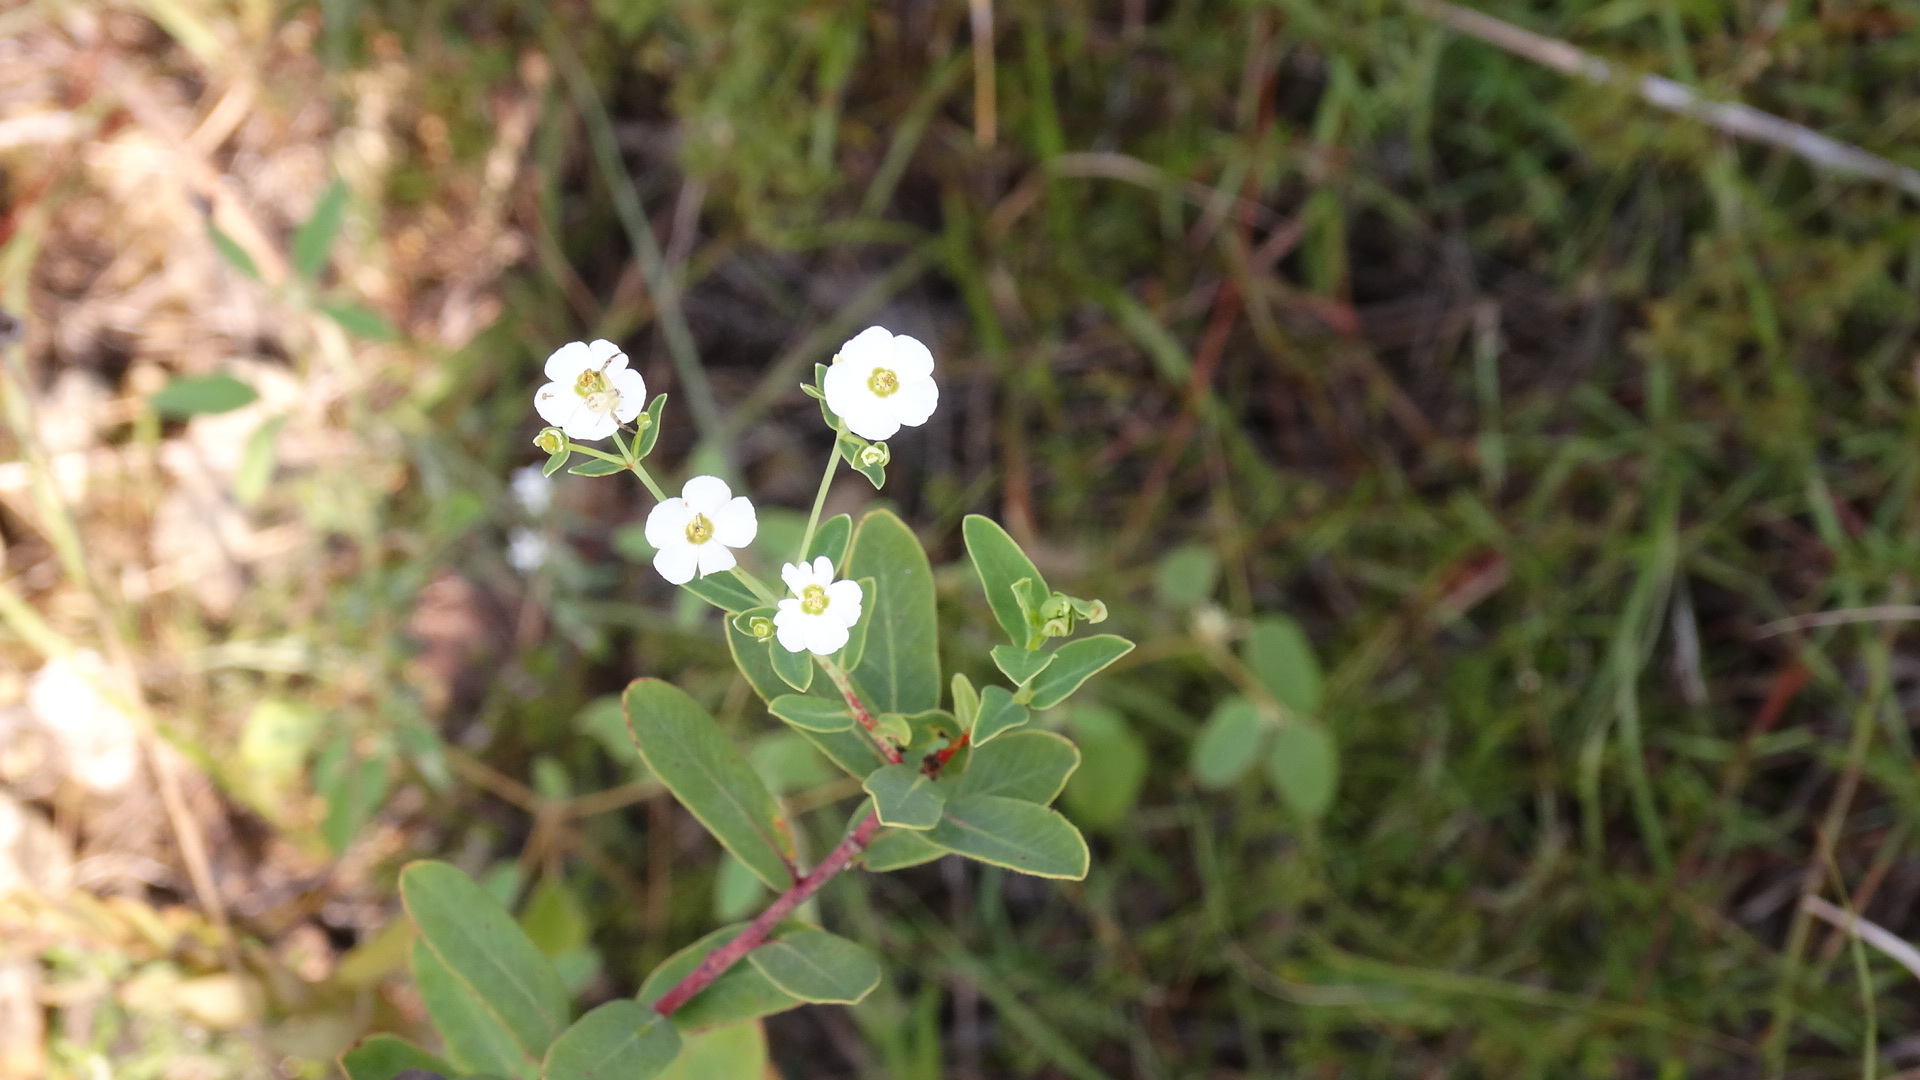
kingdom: Plantae
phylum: Tracheophyta
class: Magnoliopsida
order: Malpighiales
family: Euphorbiaceae
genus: Euphorbia
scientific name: Euphorbia corollata
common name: Flowering spurge
